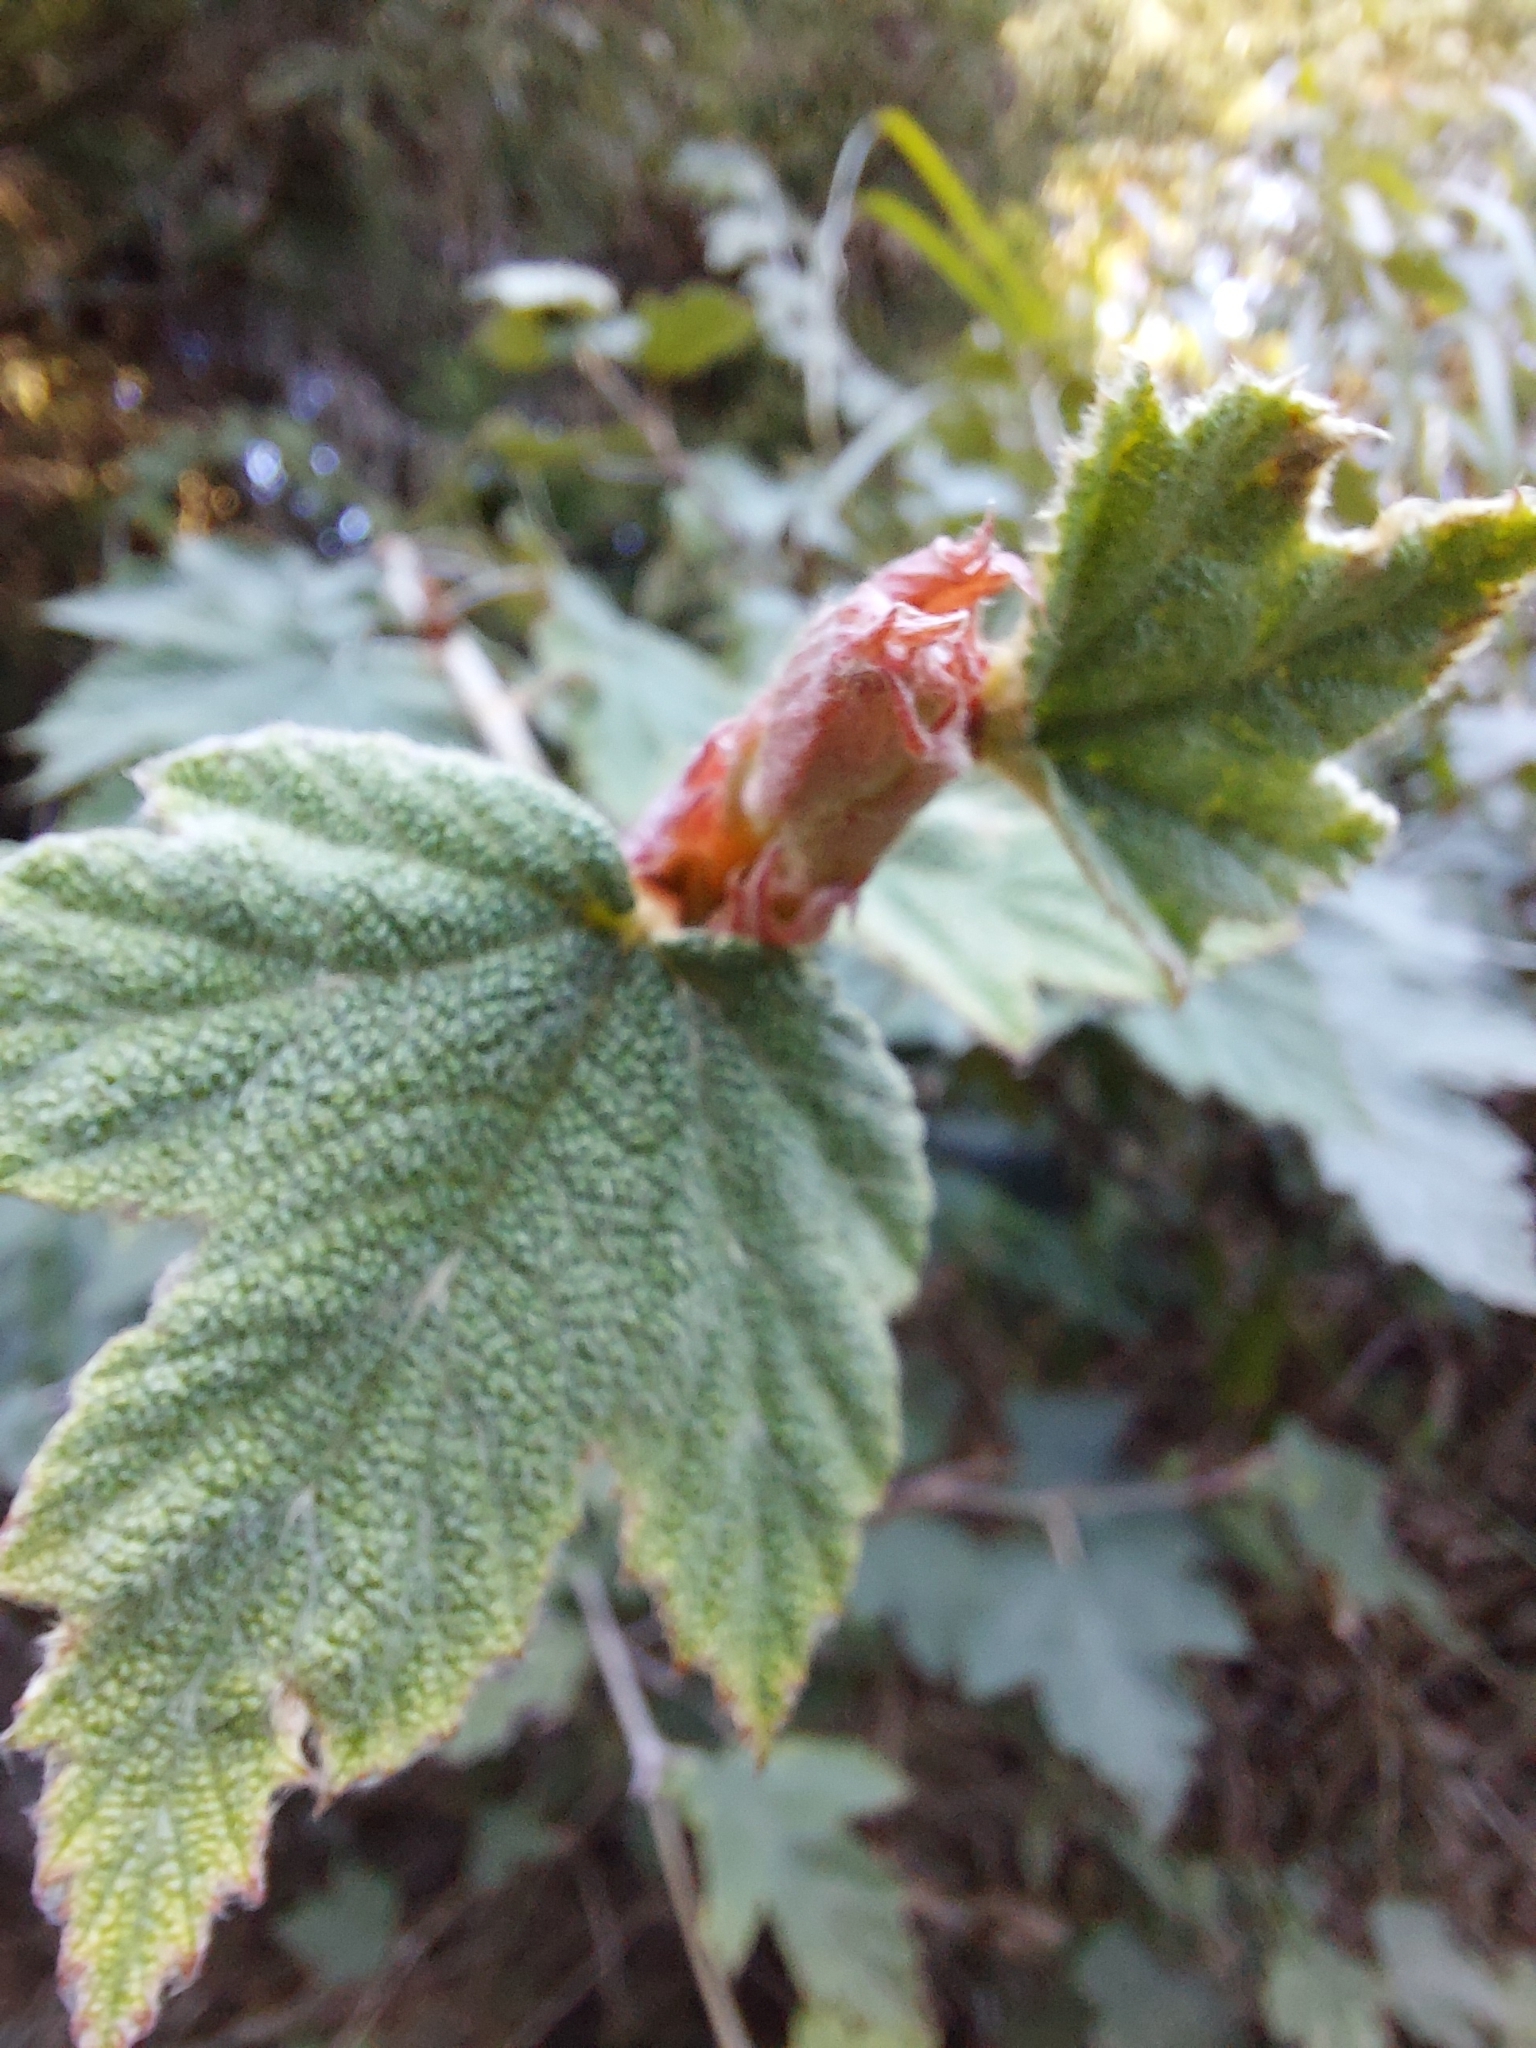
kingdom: Plantae
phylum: Tracheophyta
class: Magnoliopsida
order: Rosales
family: Rosaceae
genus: Rubus
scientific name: Rubus formosensis
